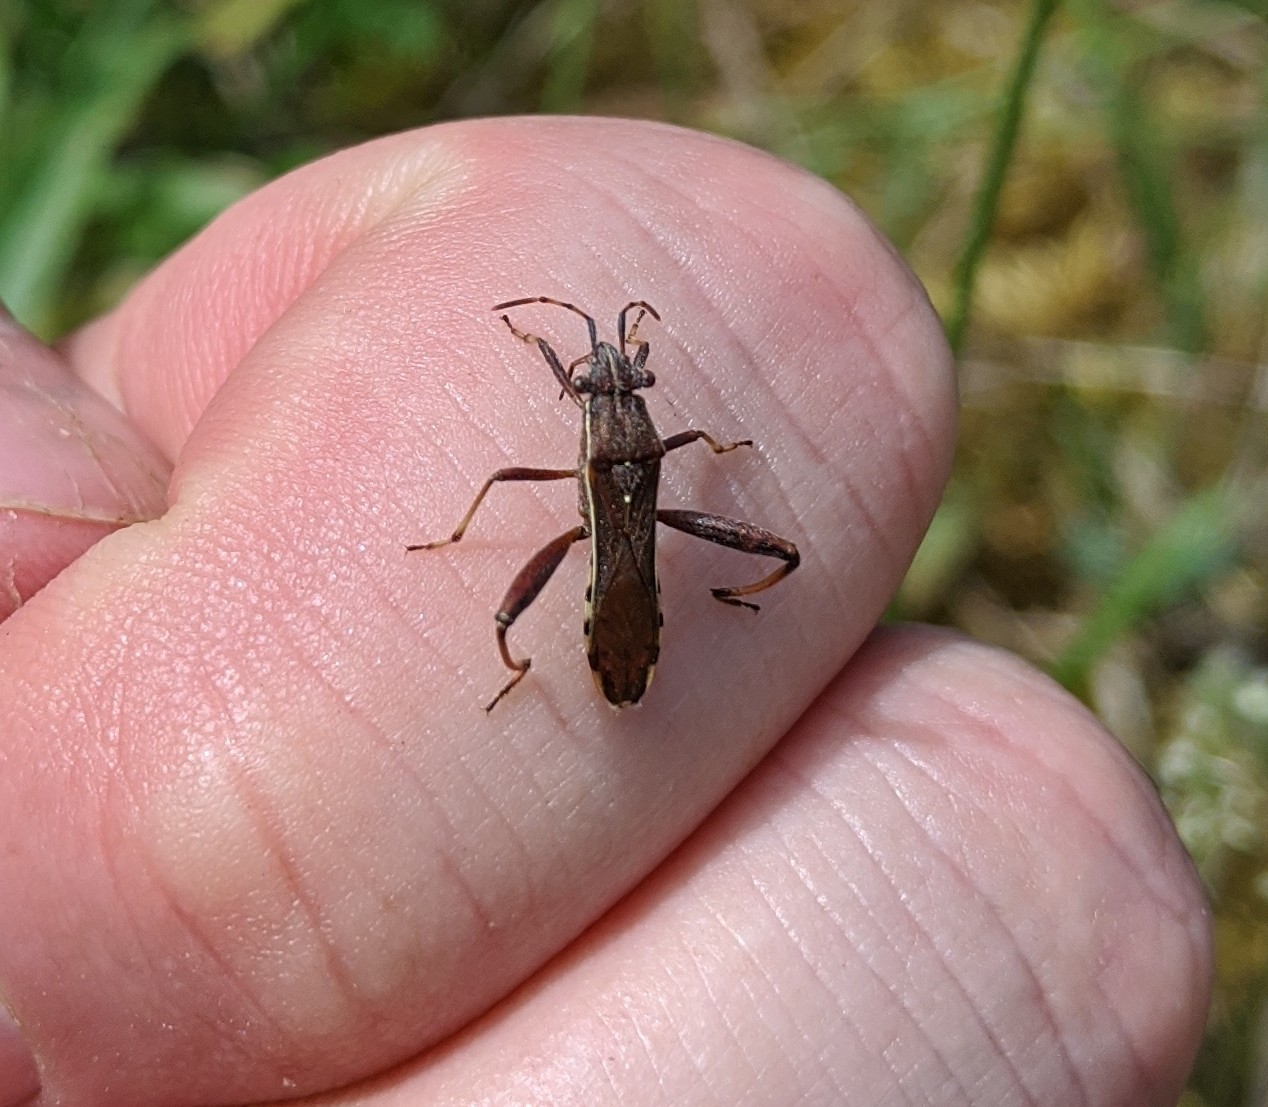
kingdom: Animalia
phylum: Arthropoda
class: Insecta
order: Hemiptera
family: Alydidae
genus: Camptopus
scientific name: Camptopus lateralis
